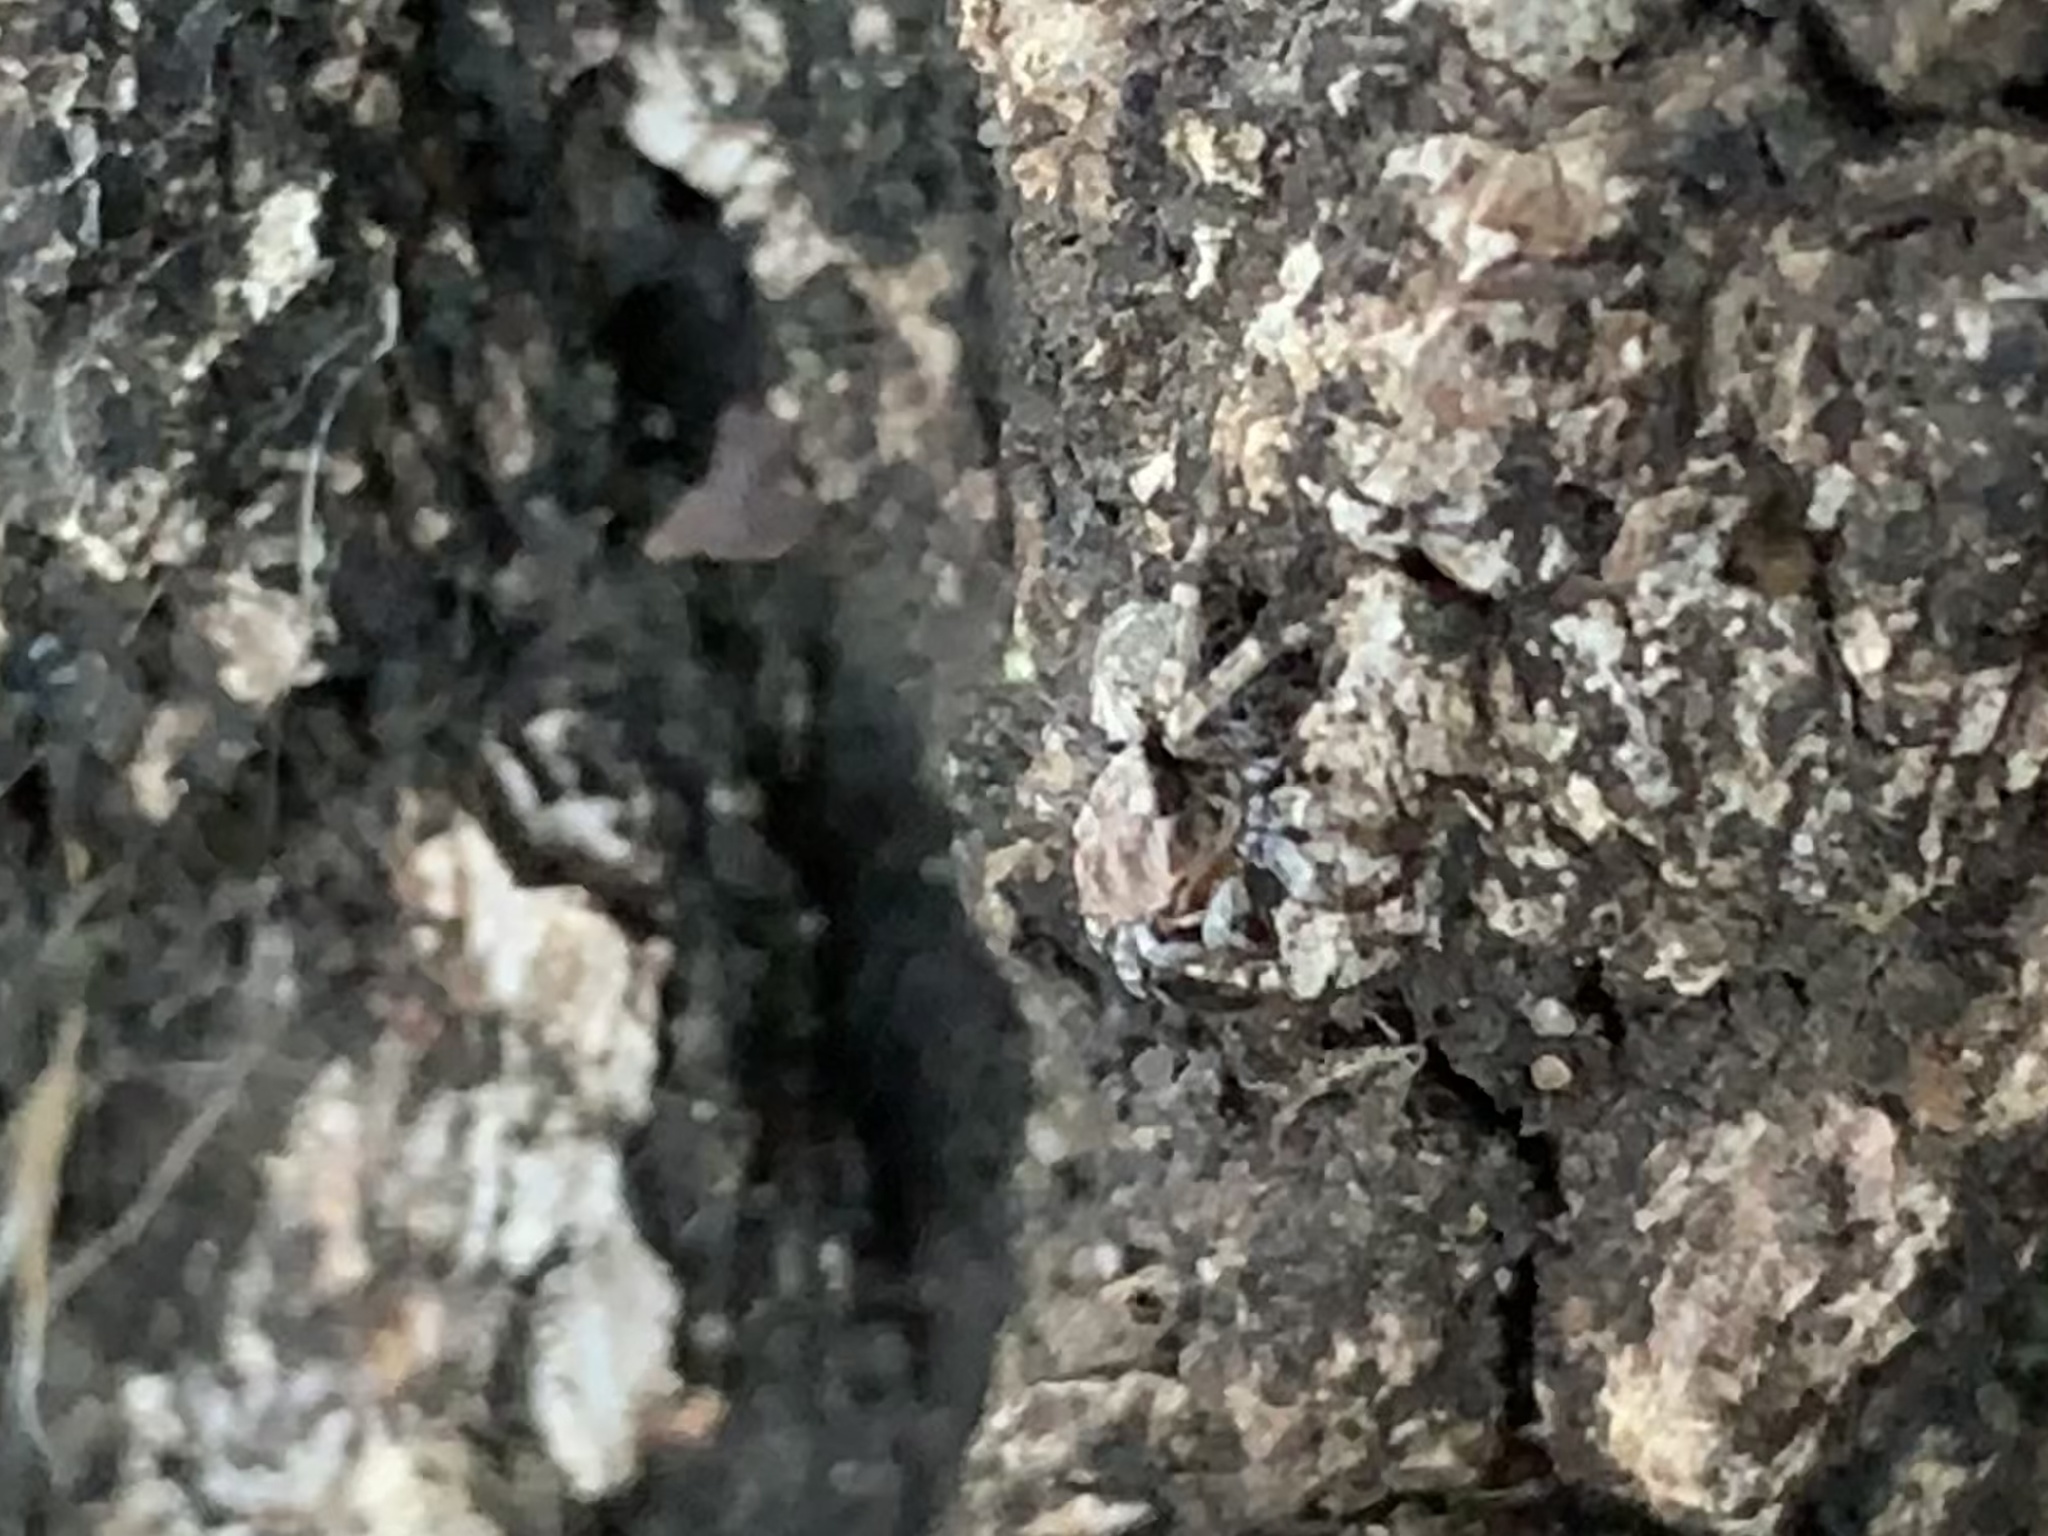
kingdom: Animalia
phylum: Arthropoda
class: Arachnida
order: Araneae
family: Salticidae
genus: Naphrys
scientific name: Naphrys pulex
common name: Flea jumping spider
